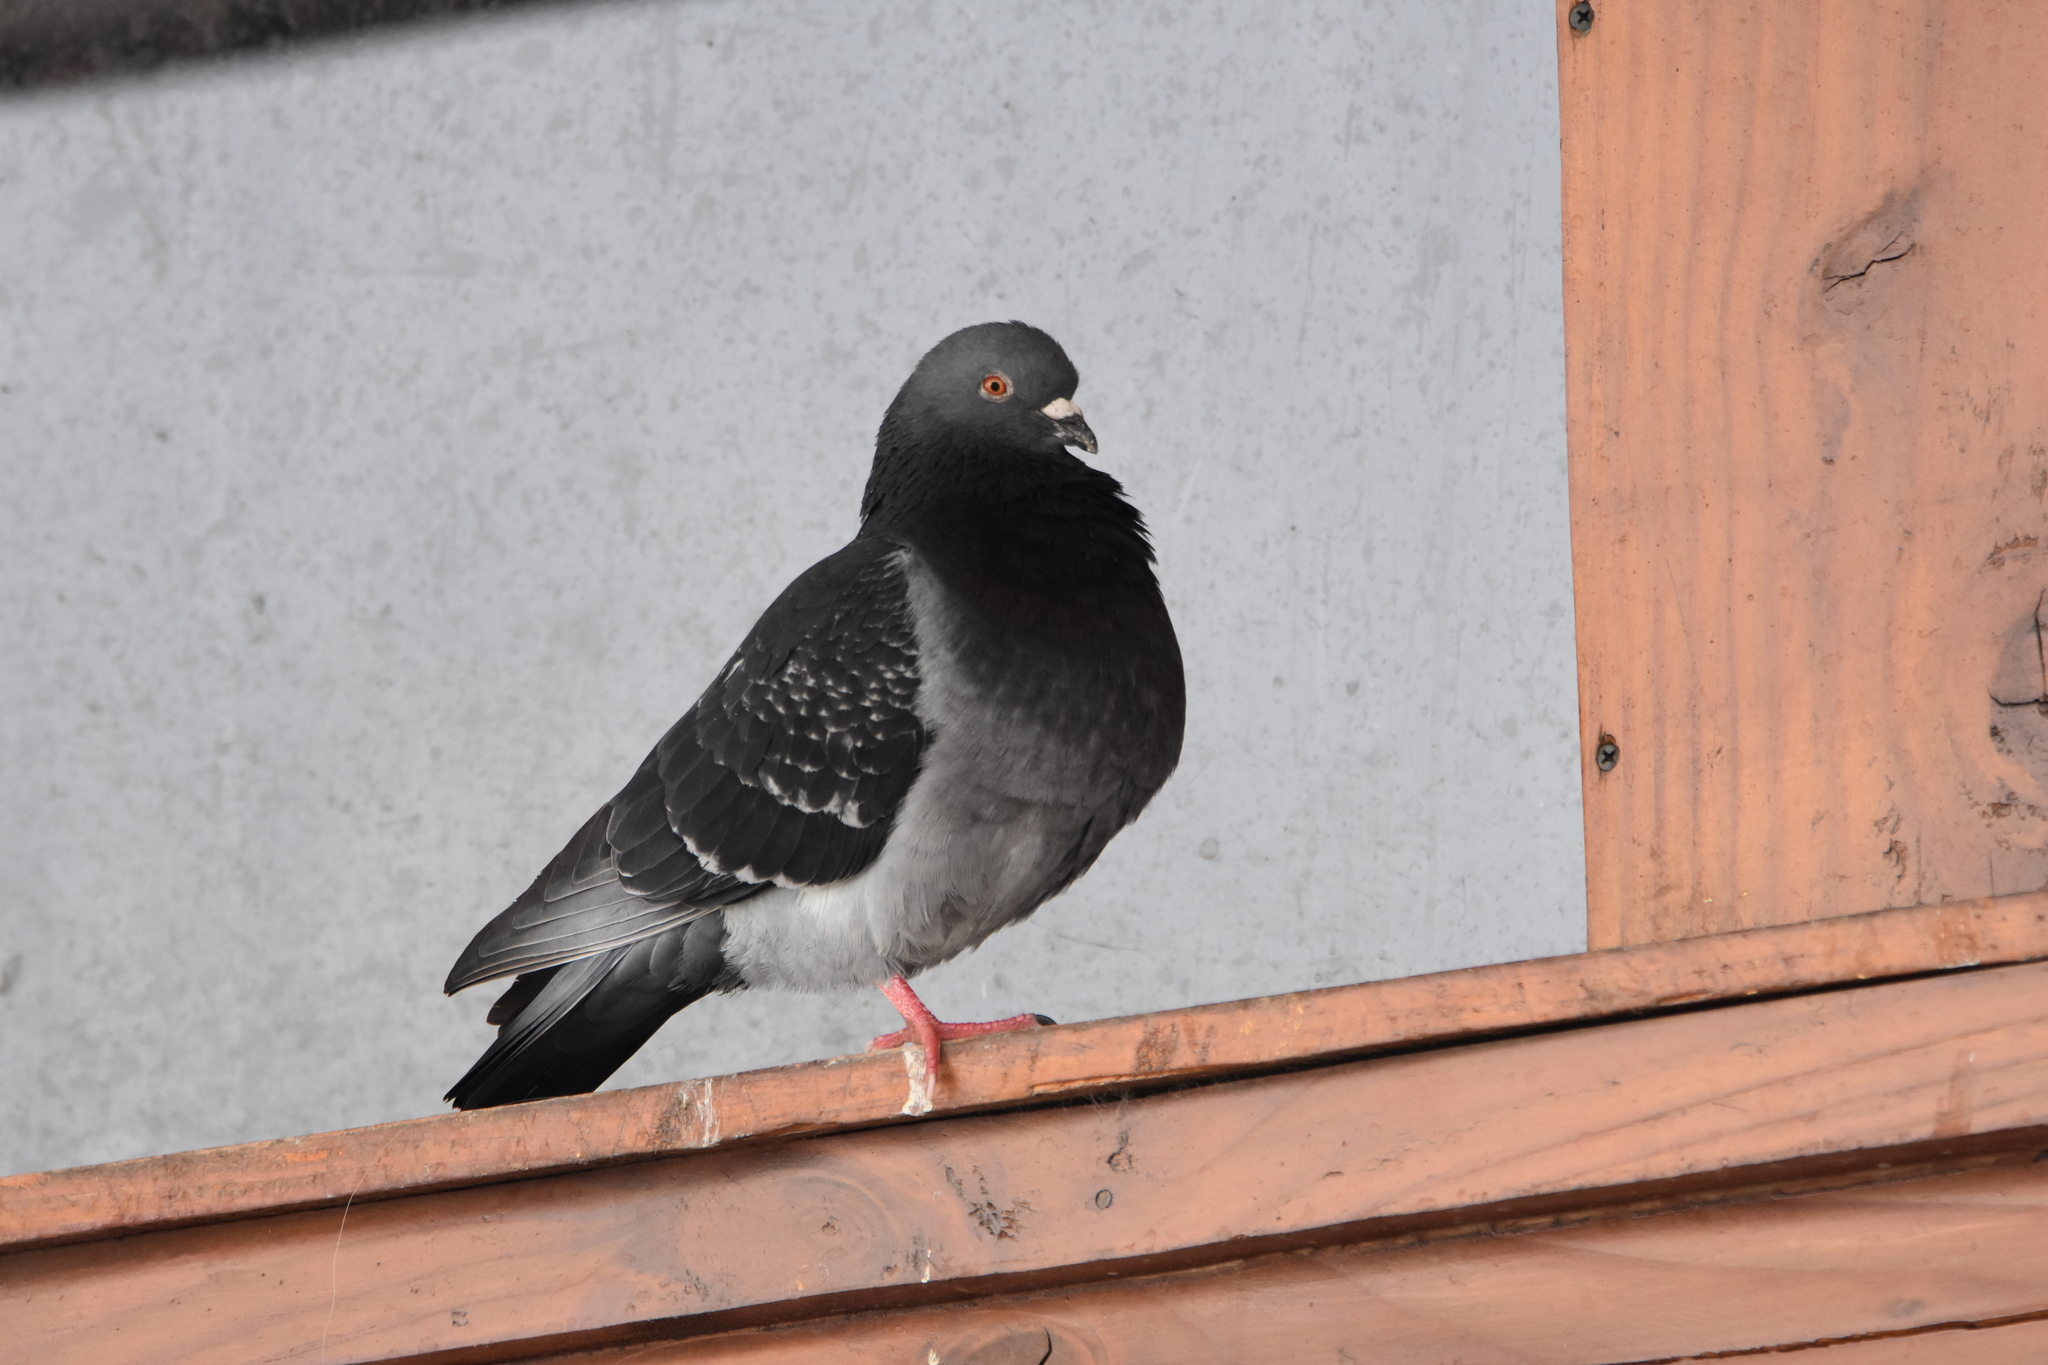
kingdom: Animalia
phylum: Chordata
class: Aves
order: Columbiformes
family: Columbidae
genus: Columba
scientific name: Columba livia
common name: Rock pigeon
